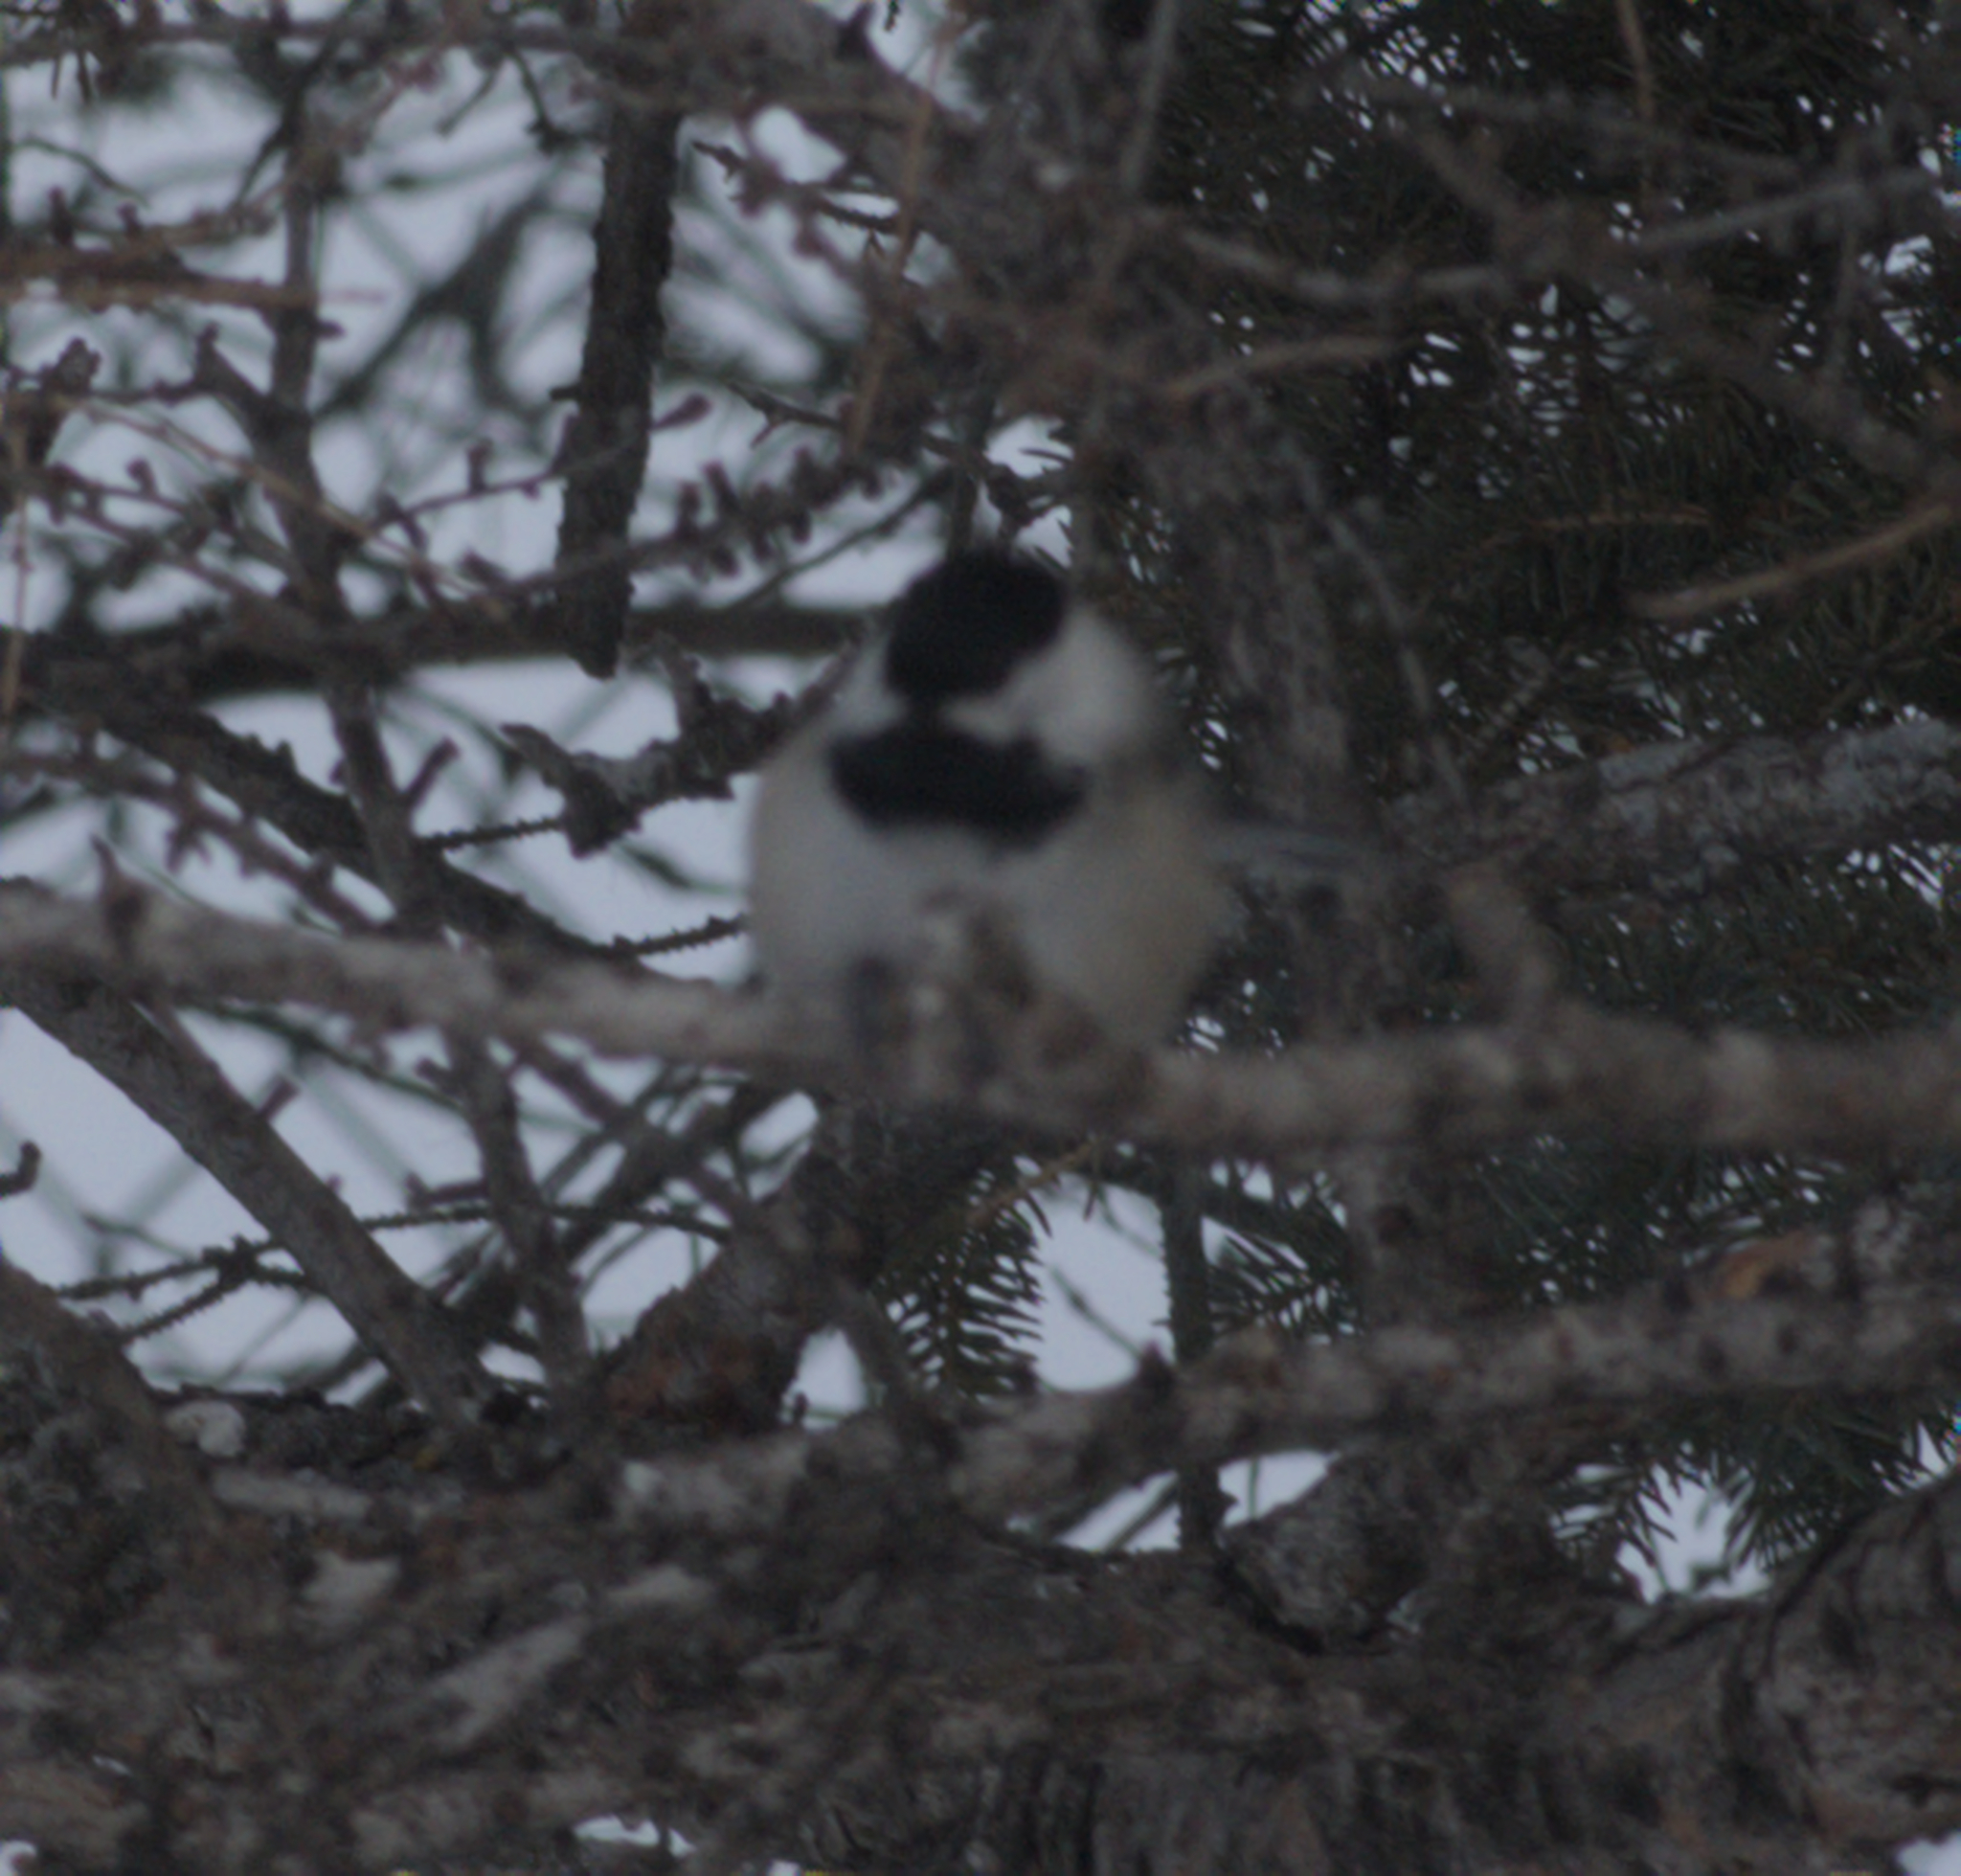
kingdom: Animalia
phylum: Chordata
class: Aves
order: Passeriformes
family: Paridae
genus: Poecile
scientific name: Poecile atricapillus
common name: Black-capped chickadee
